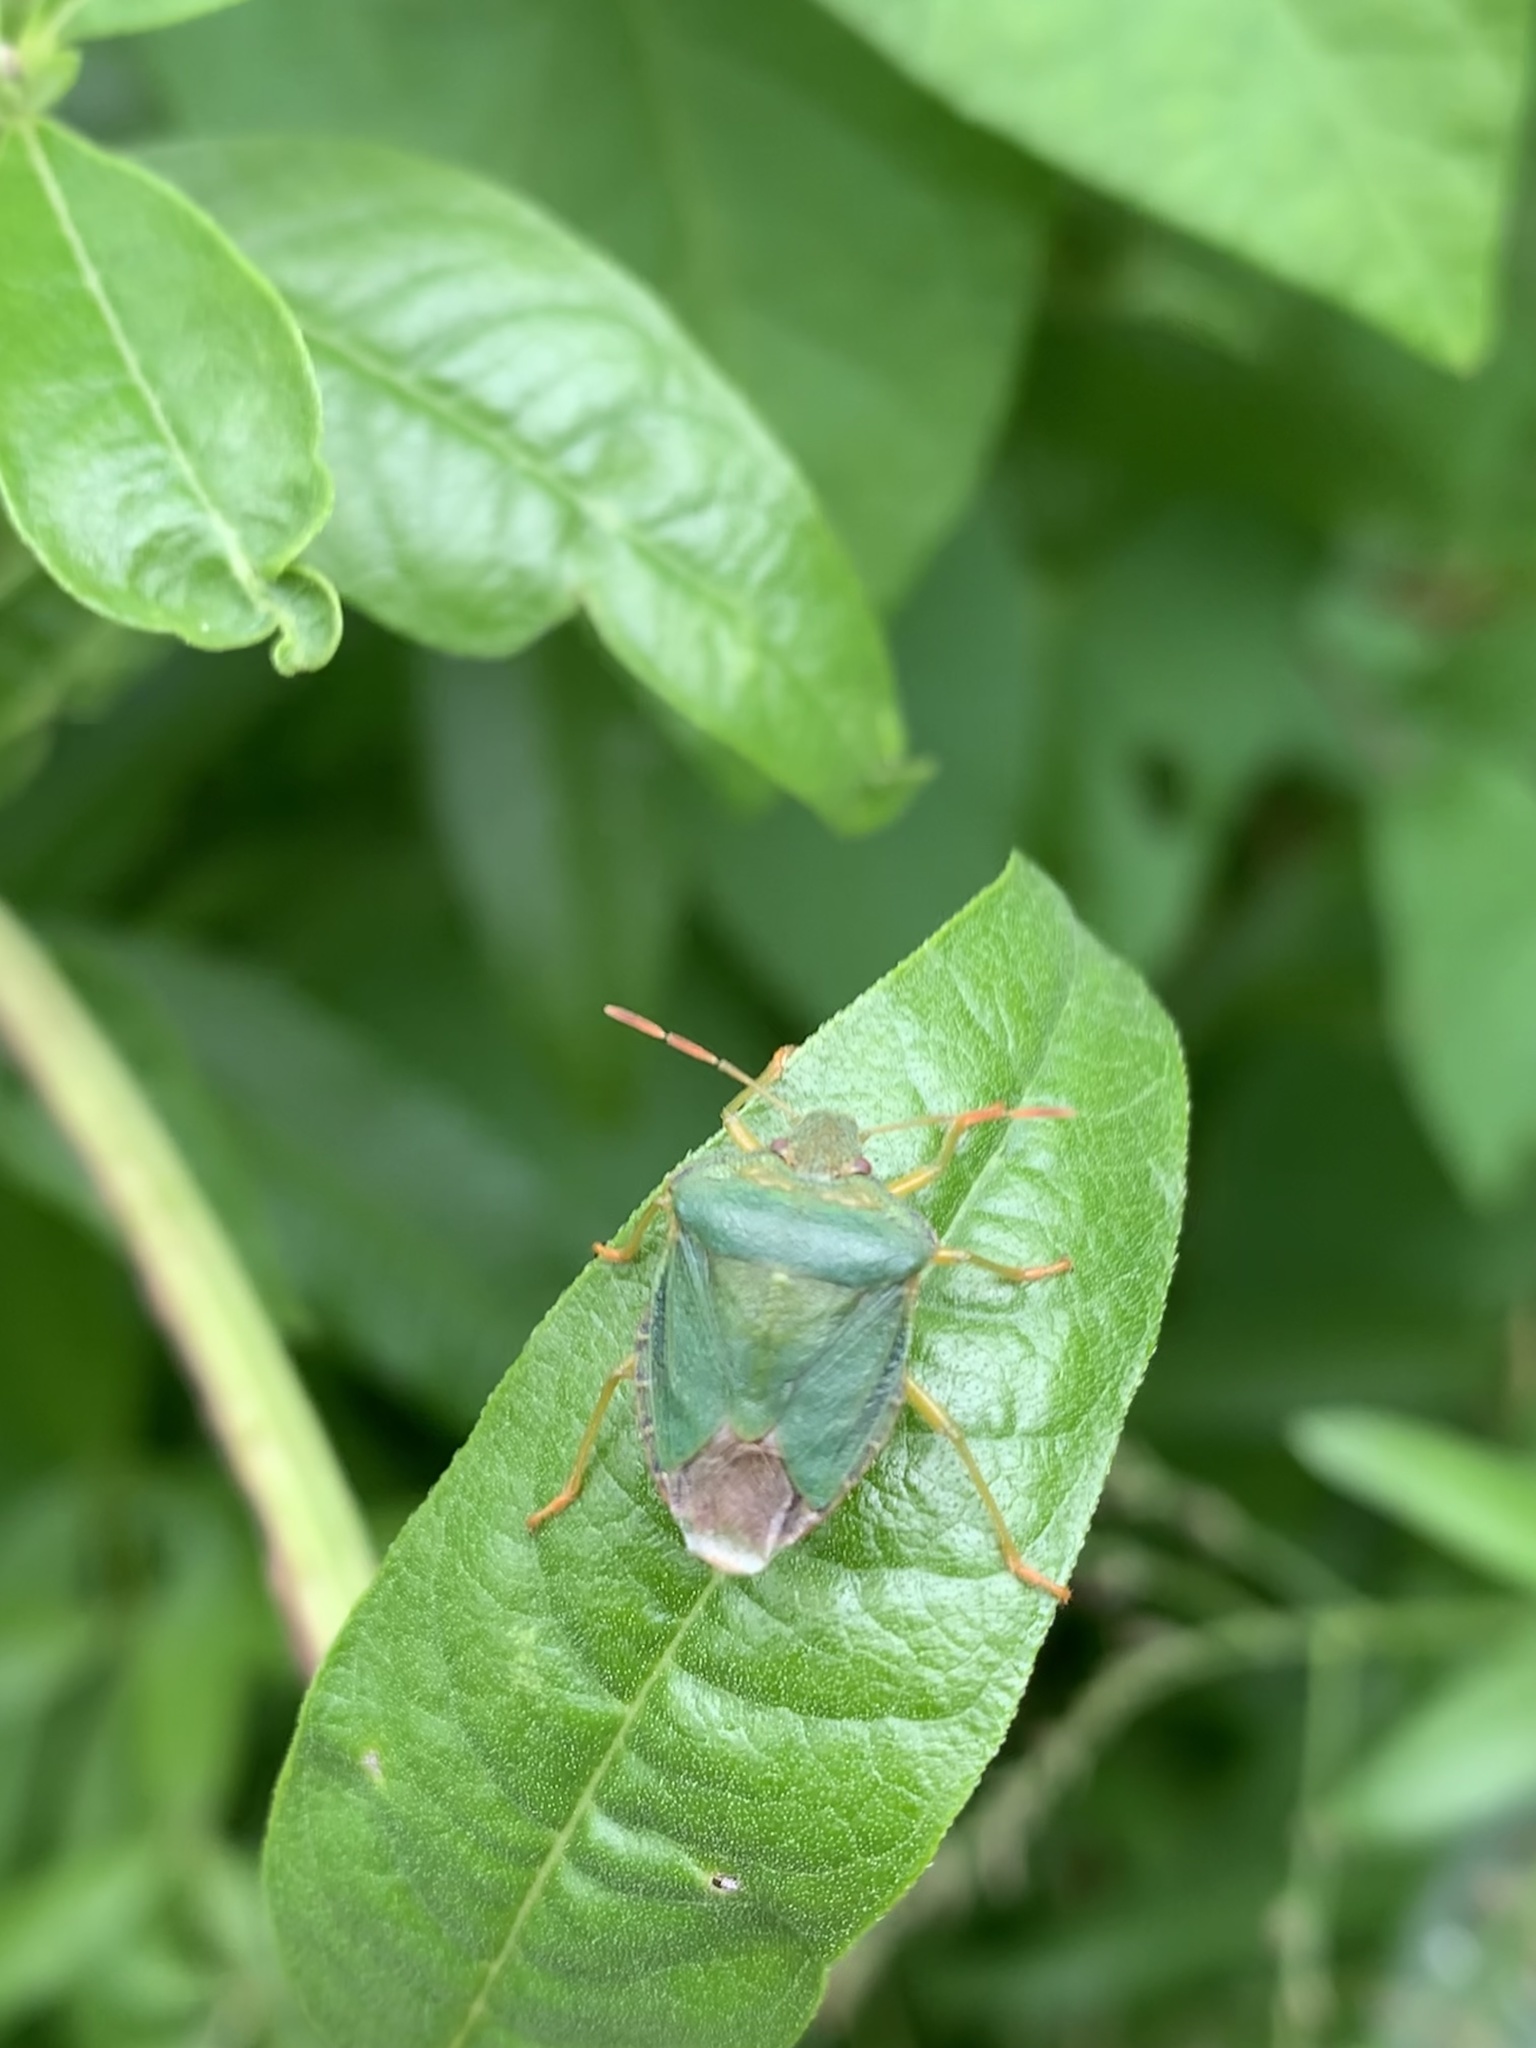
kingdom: Animalia
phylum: Arthropoda
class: Insecta
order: Hemiptera
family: Pentatomidae
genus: Palomena
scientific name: Palomena prasina
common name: Green shieldbug
